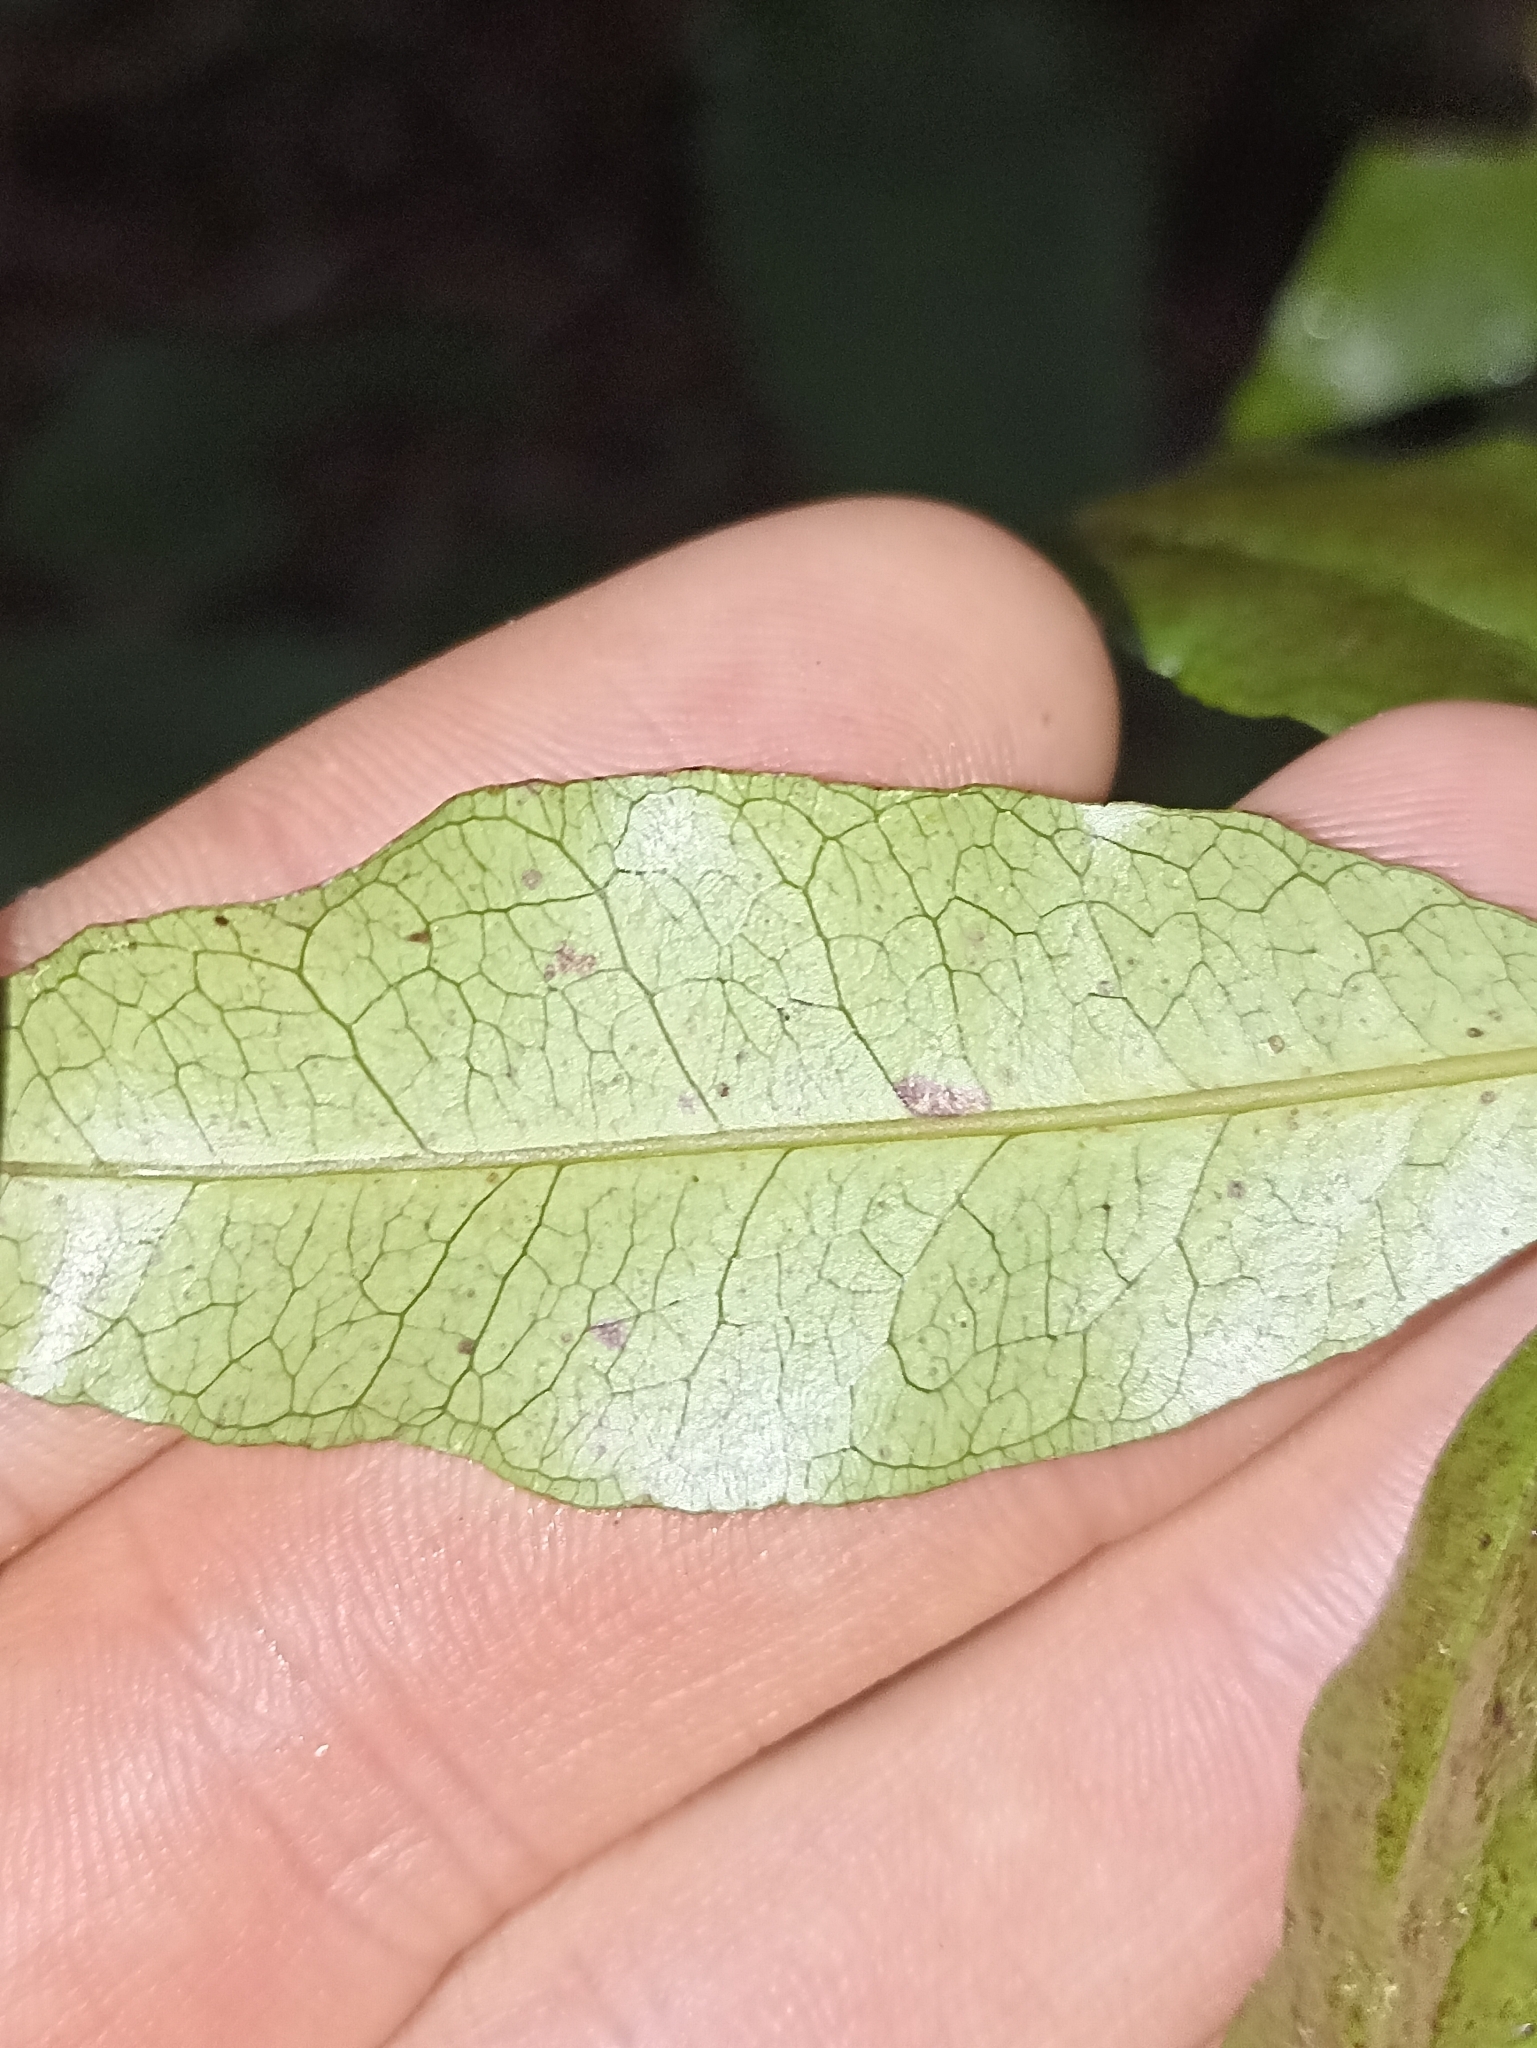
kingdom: Plantae
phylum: Tracheophyta
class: Magnoliopsida
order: Myrtales
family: Myrtaceae
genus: Syzygium
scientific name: Syzygium maire
